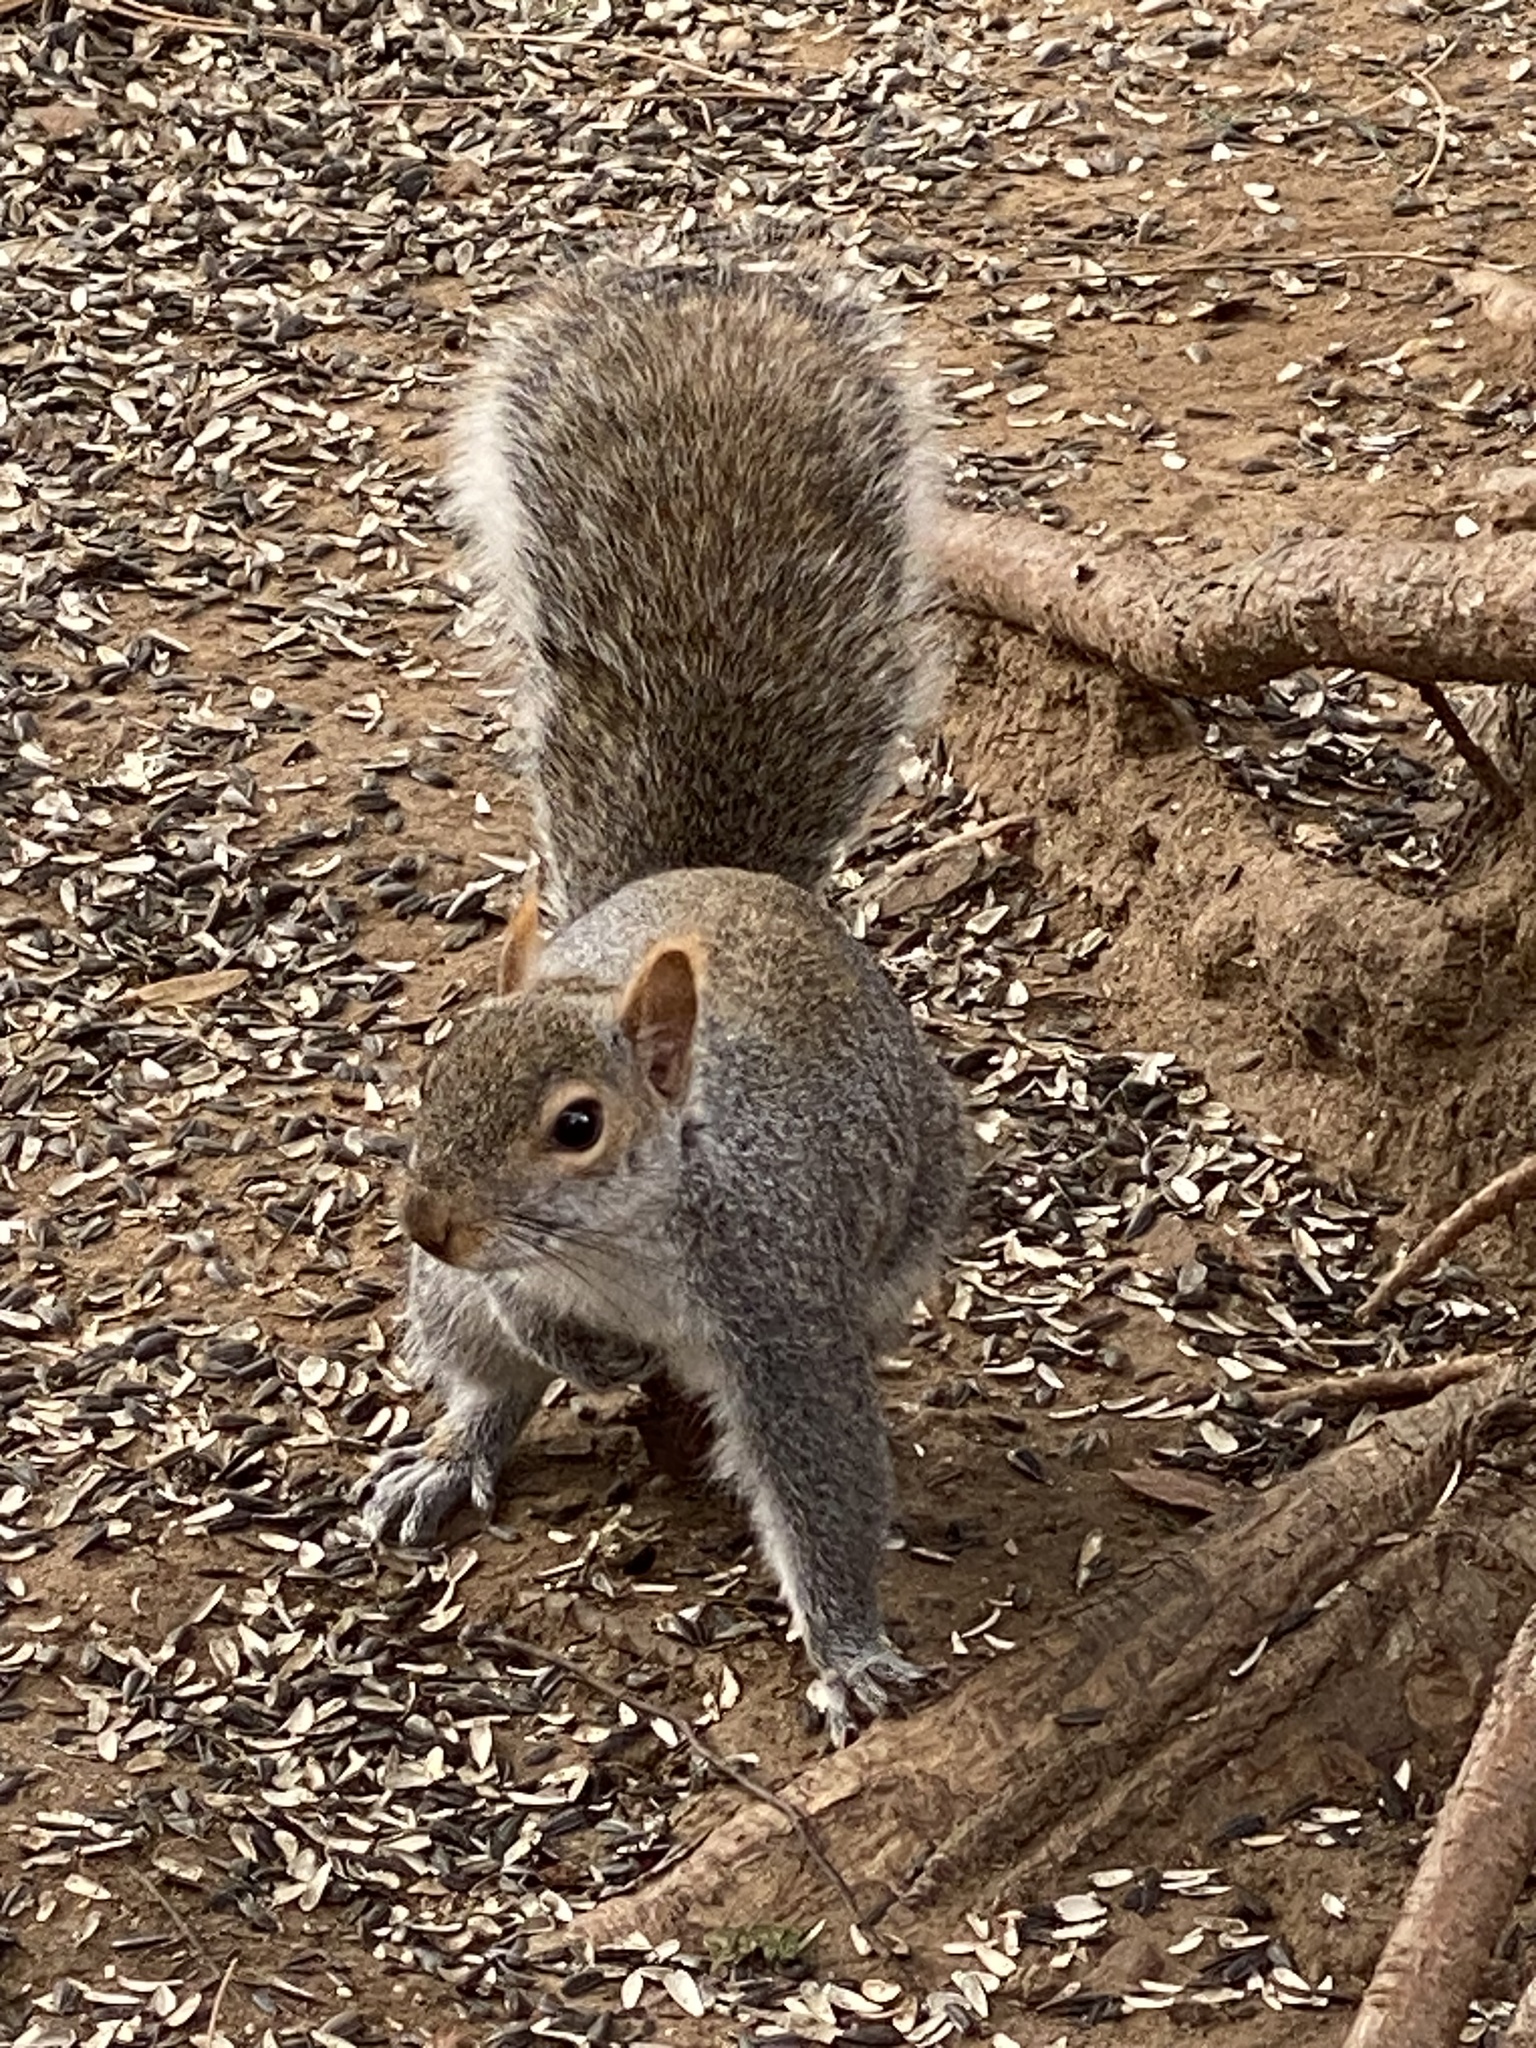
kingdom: Animalia
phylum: Chordata
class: Mammalia
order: Rodentia
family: Sciuridae
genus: Sciurus
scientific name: Sciurus carolinensis
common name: Eastern gray squirrel
